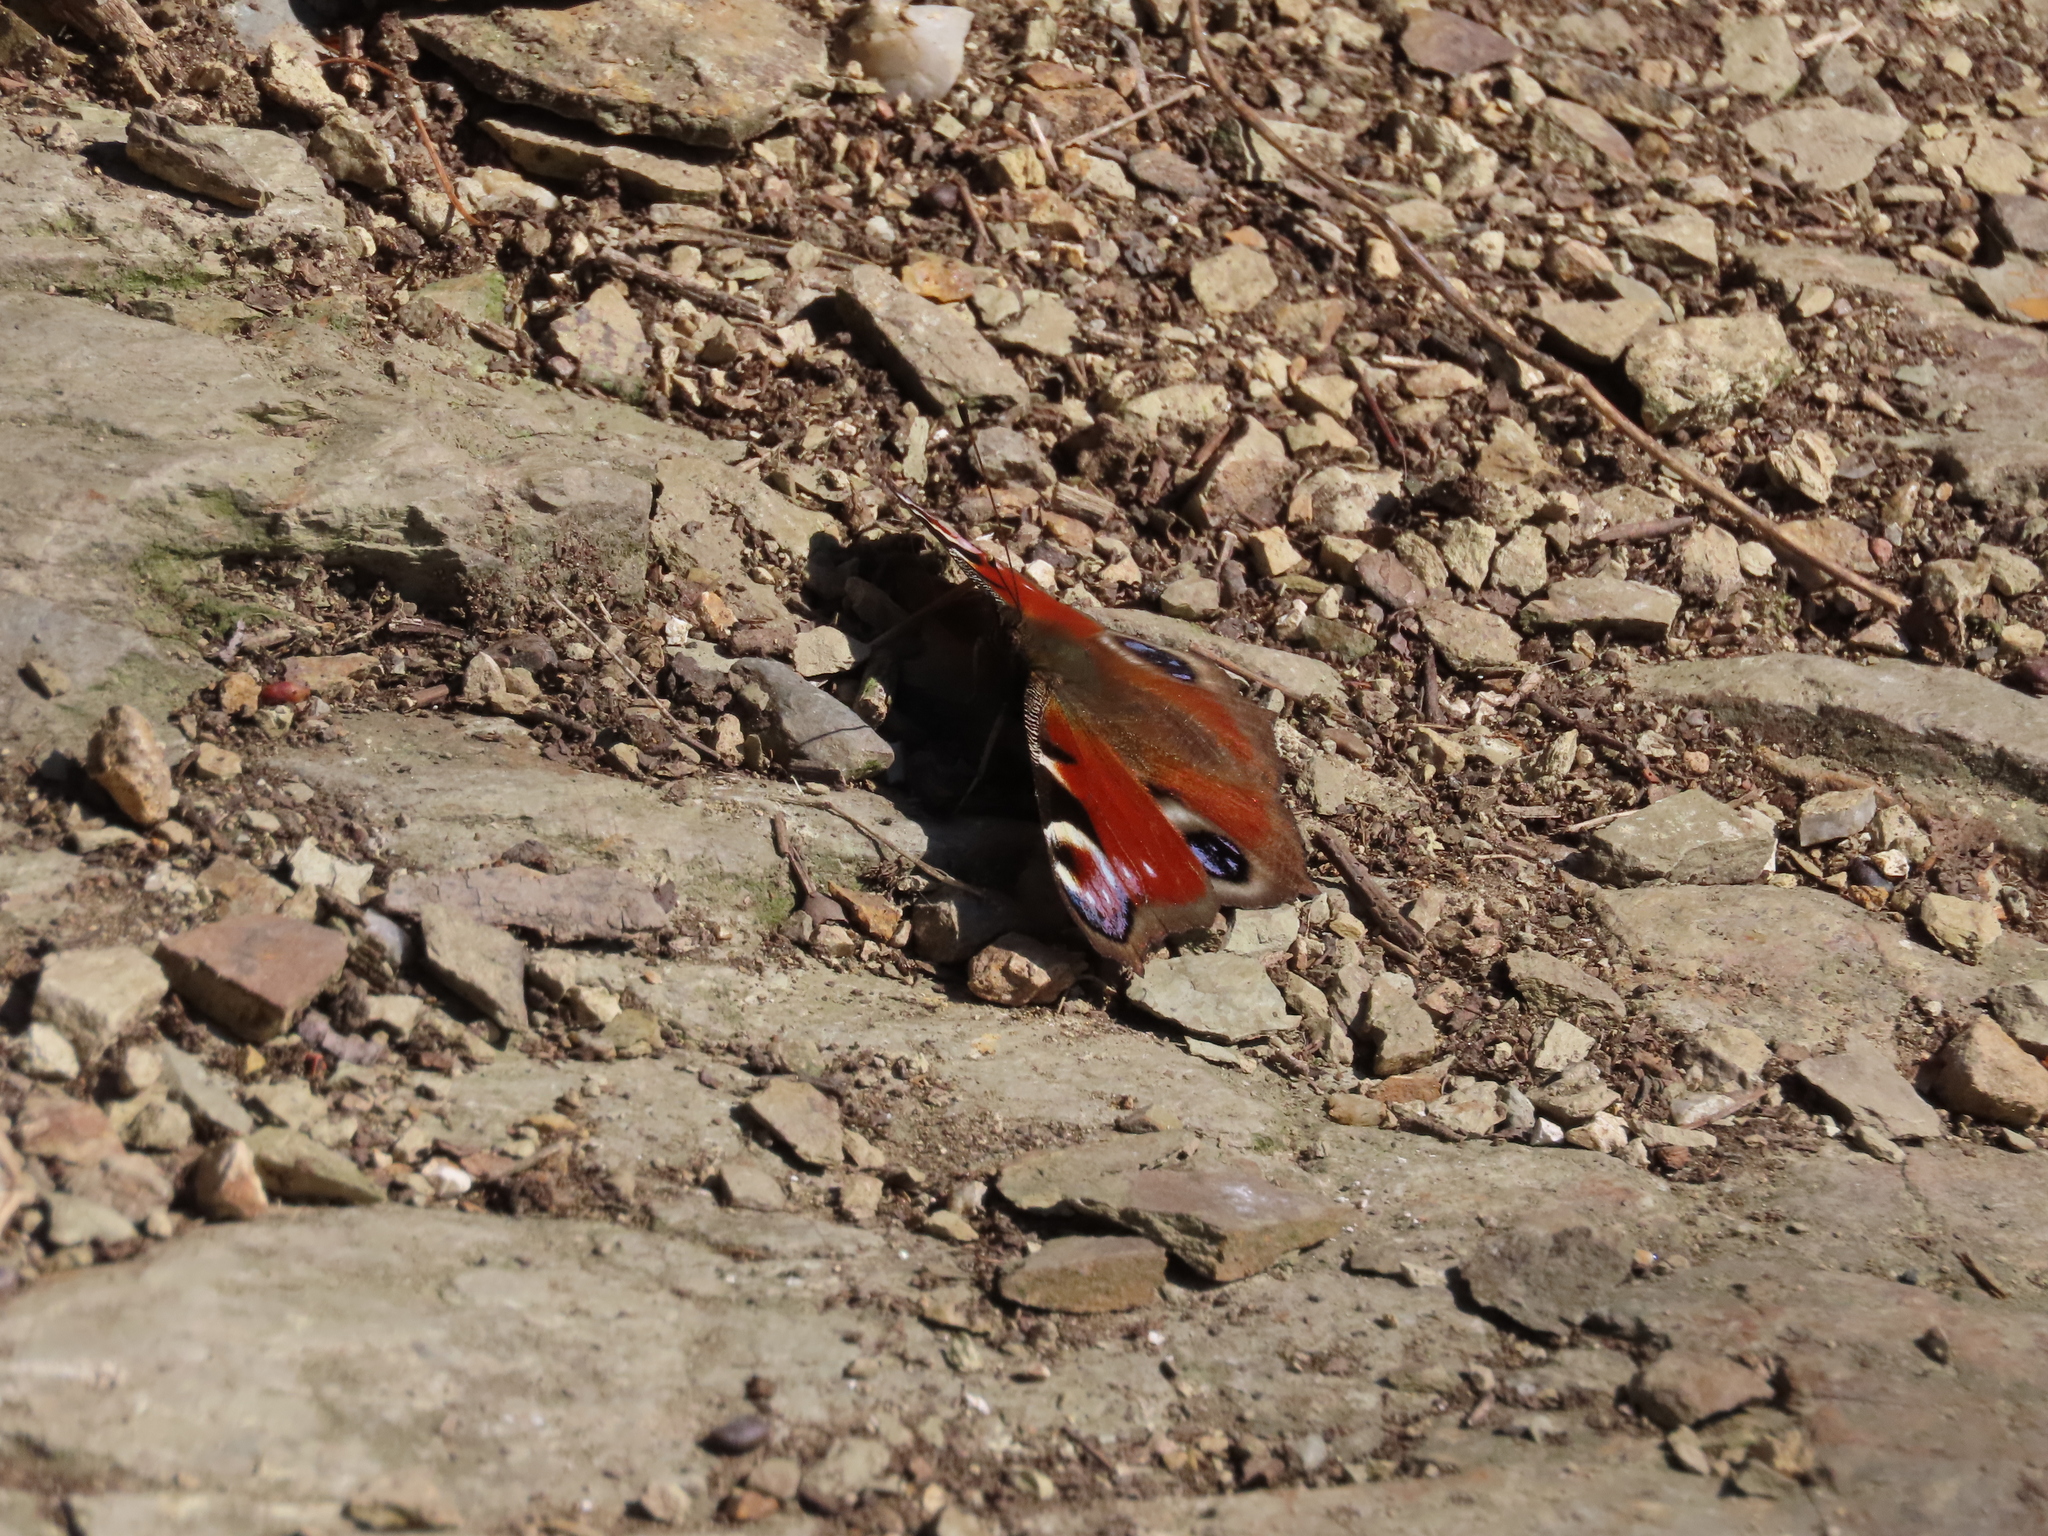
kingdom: Animalia
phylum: Arthropoda
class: Insecta
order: Lepidoptera
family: Nymphalidae
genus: Aglais
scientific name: Aglais io
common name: Peacock
